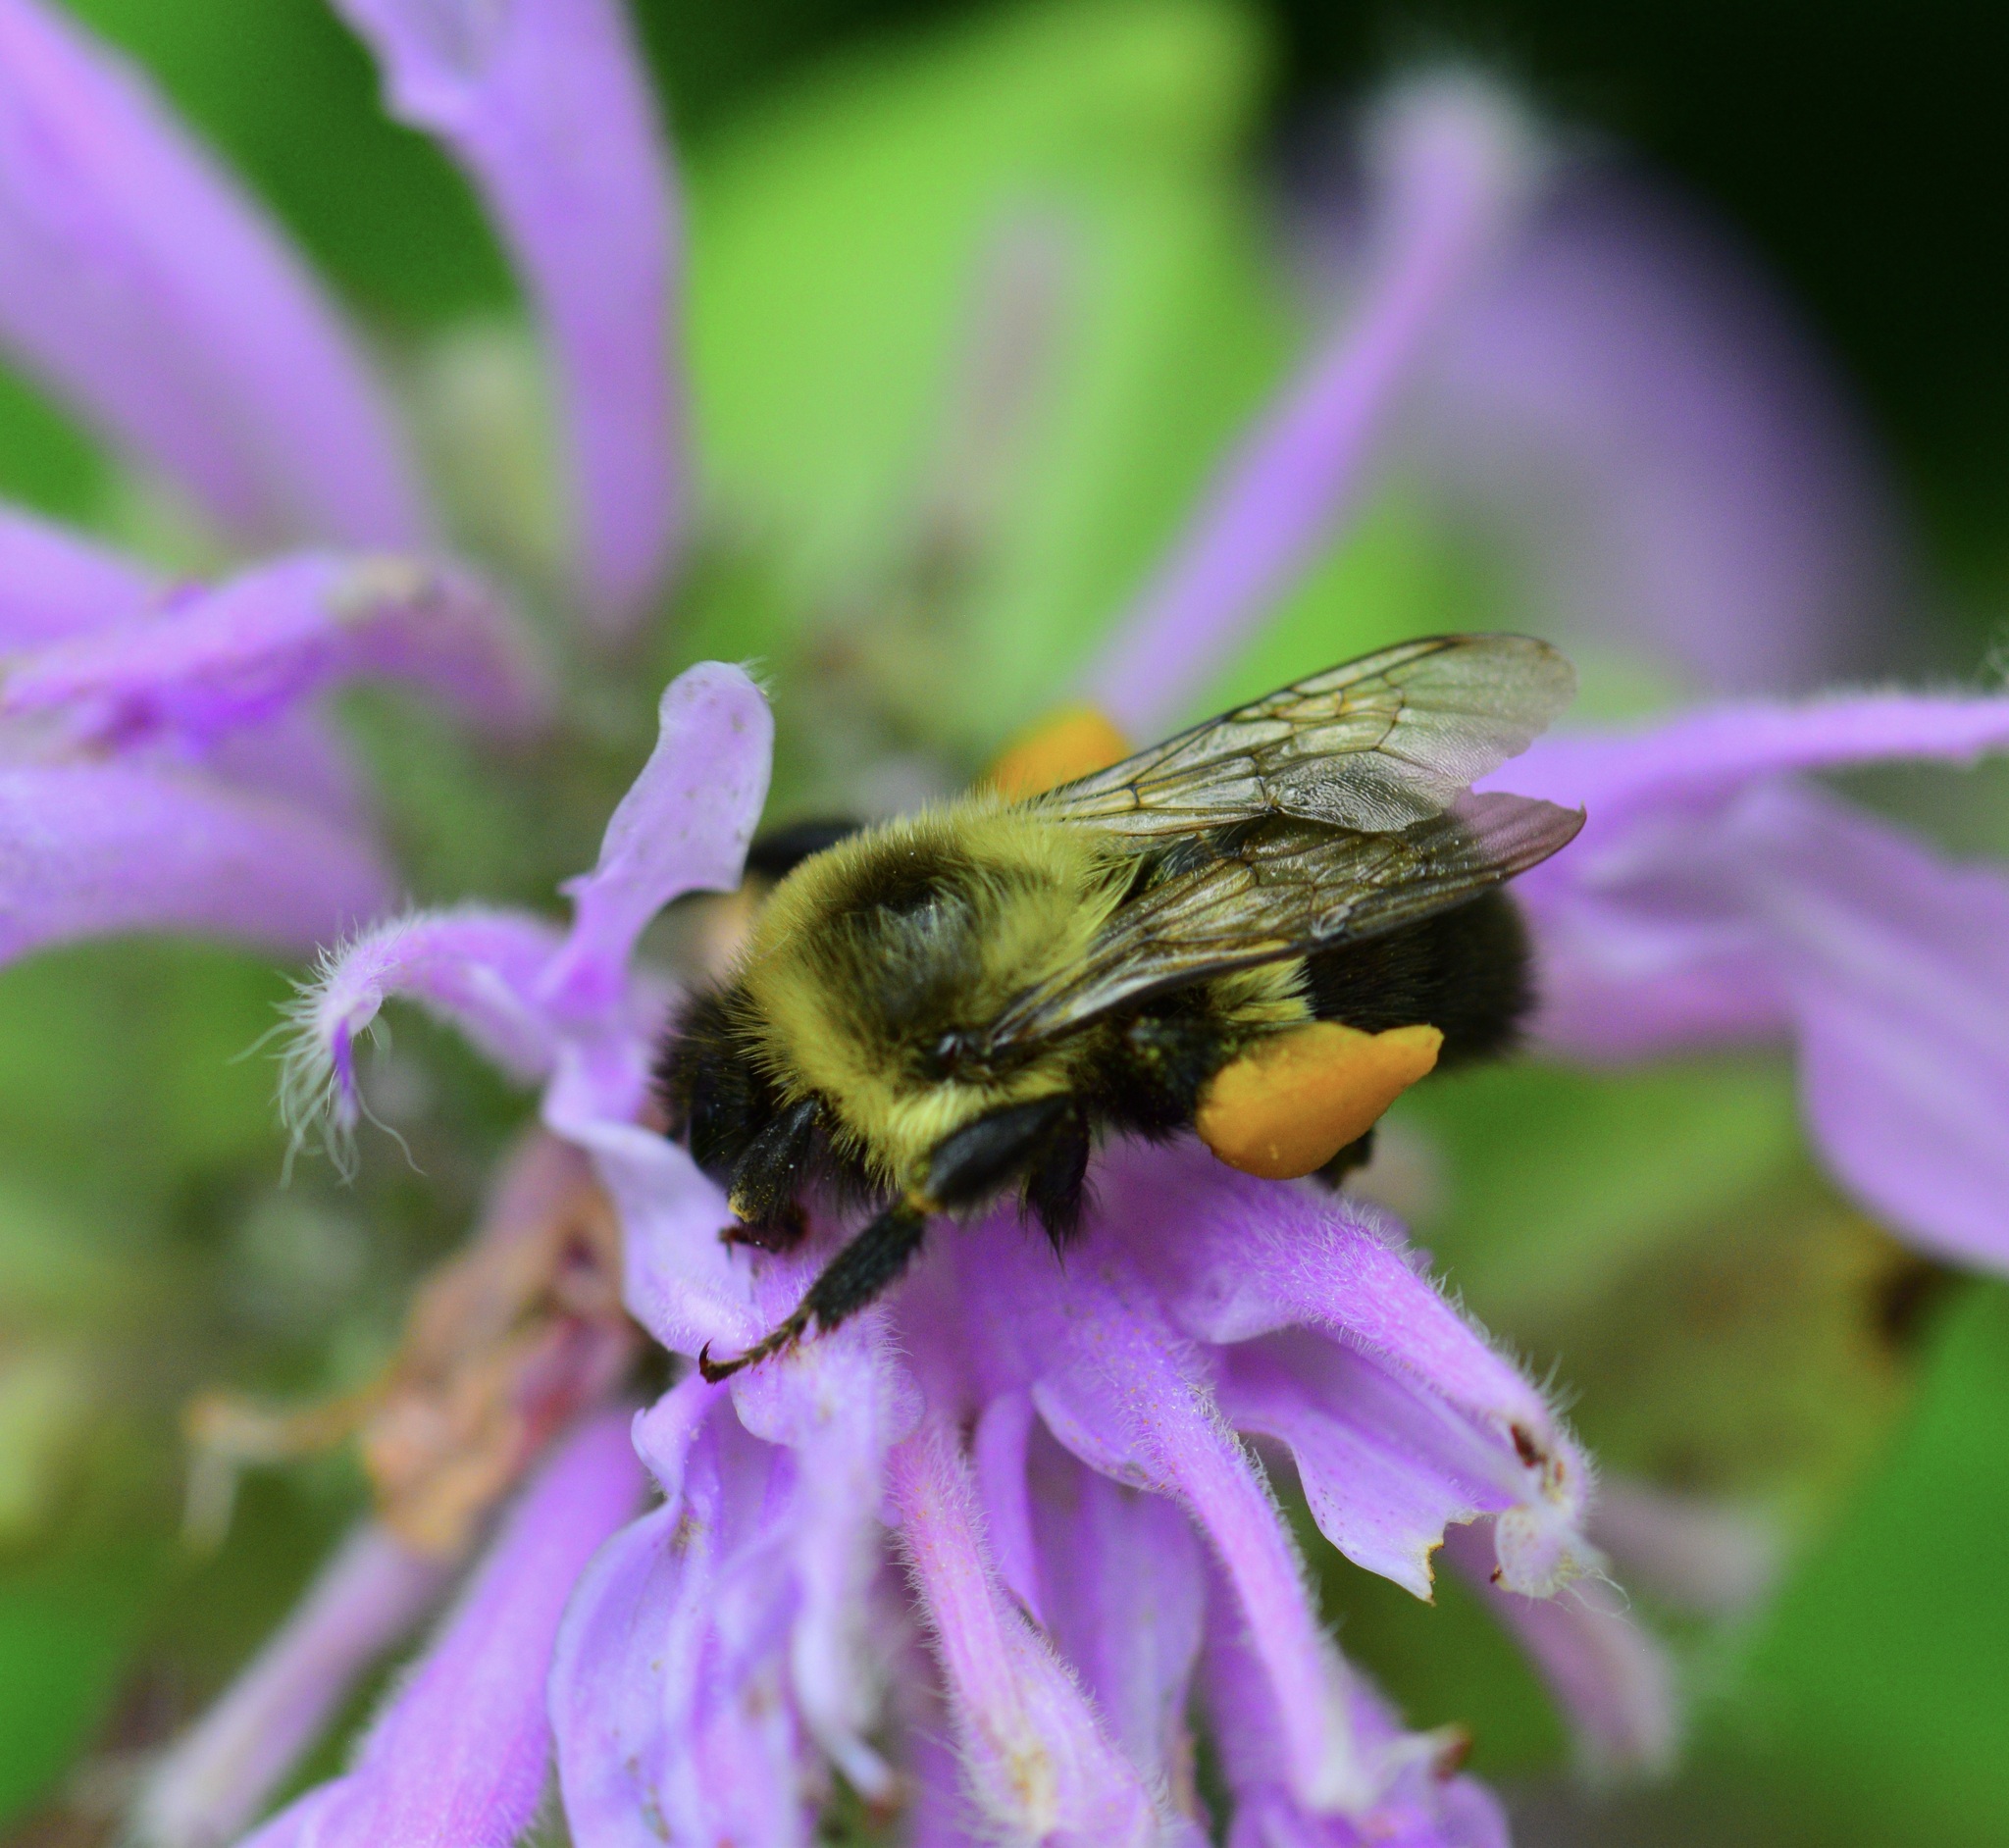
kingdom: Animalia
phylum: Arthropoda
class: Insecta
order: Hymenoptera
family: Apidae
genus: Bombus
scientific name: Bombus impatiens
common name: Common eastern bumble bee
